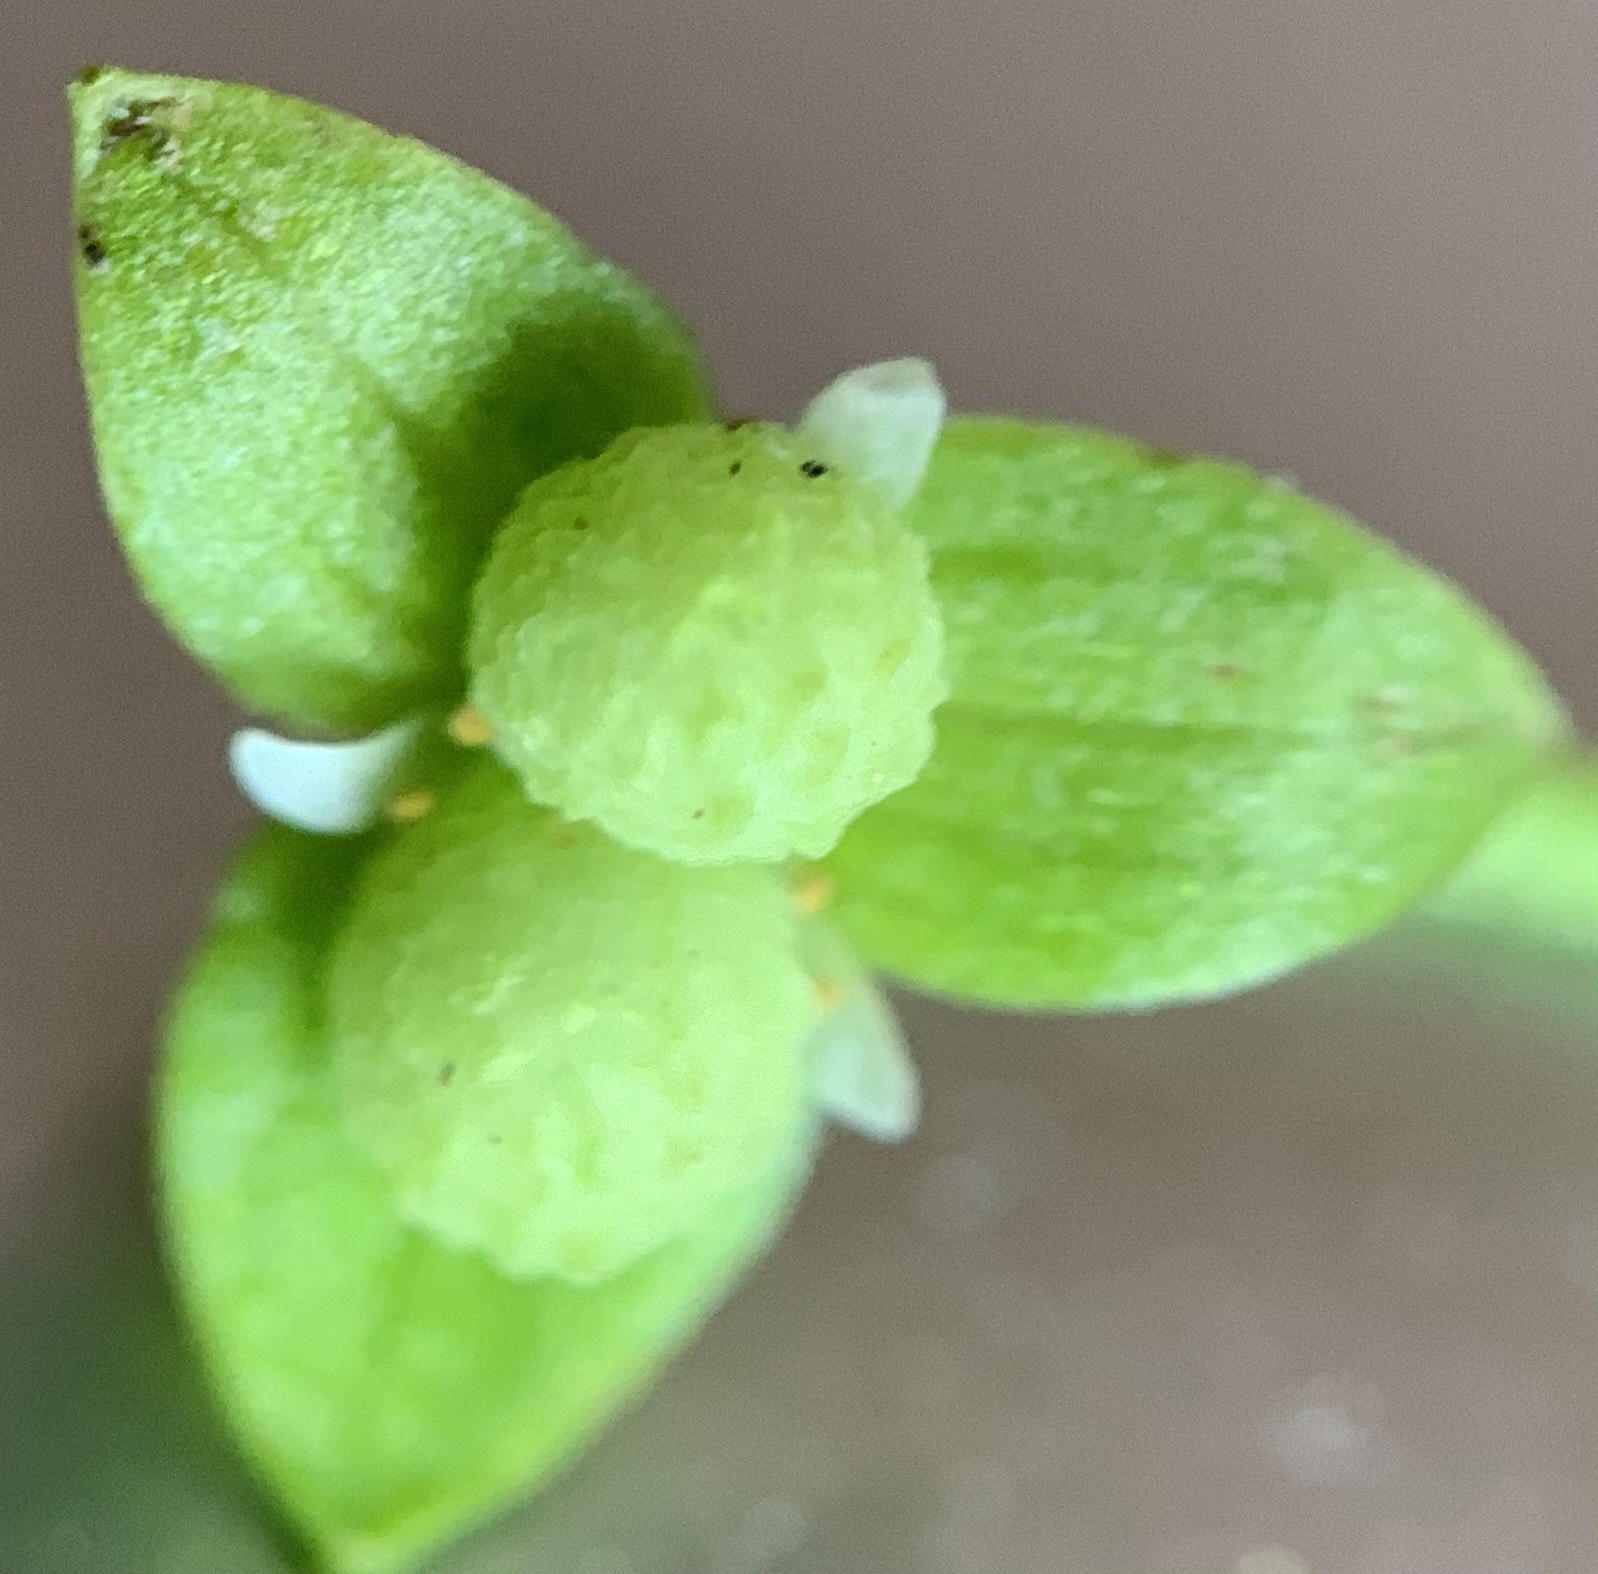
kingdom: Plantae
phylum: Tracheophyta
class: Magnoliopsida
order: Brassicales
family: Limnanthaceae
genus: Floerkea
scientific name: Floerkea proserpinacoides
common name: False mermaid
